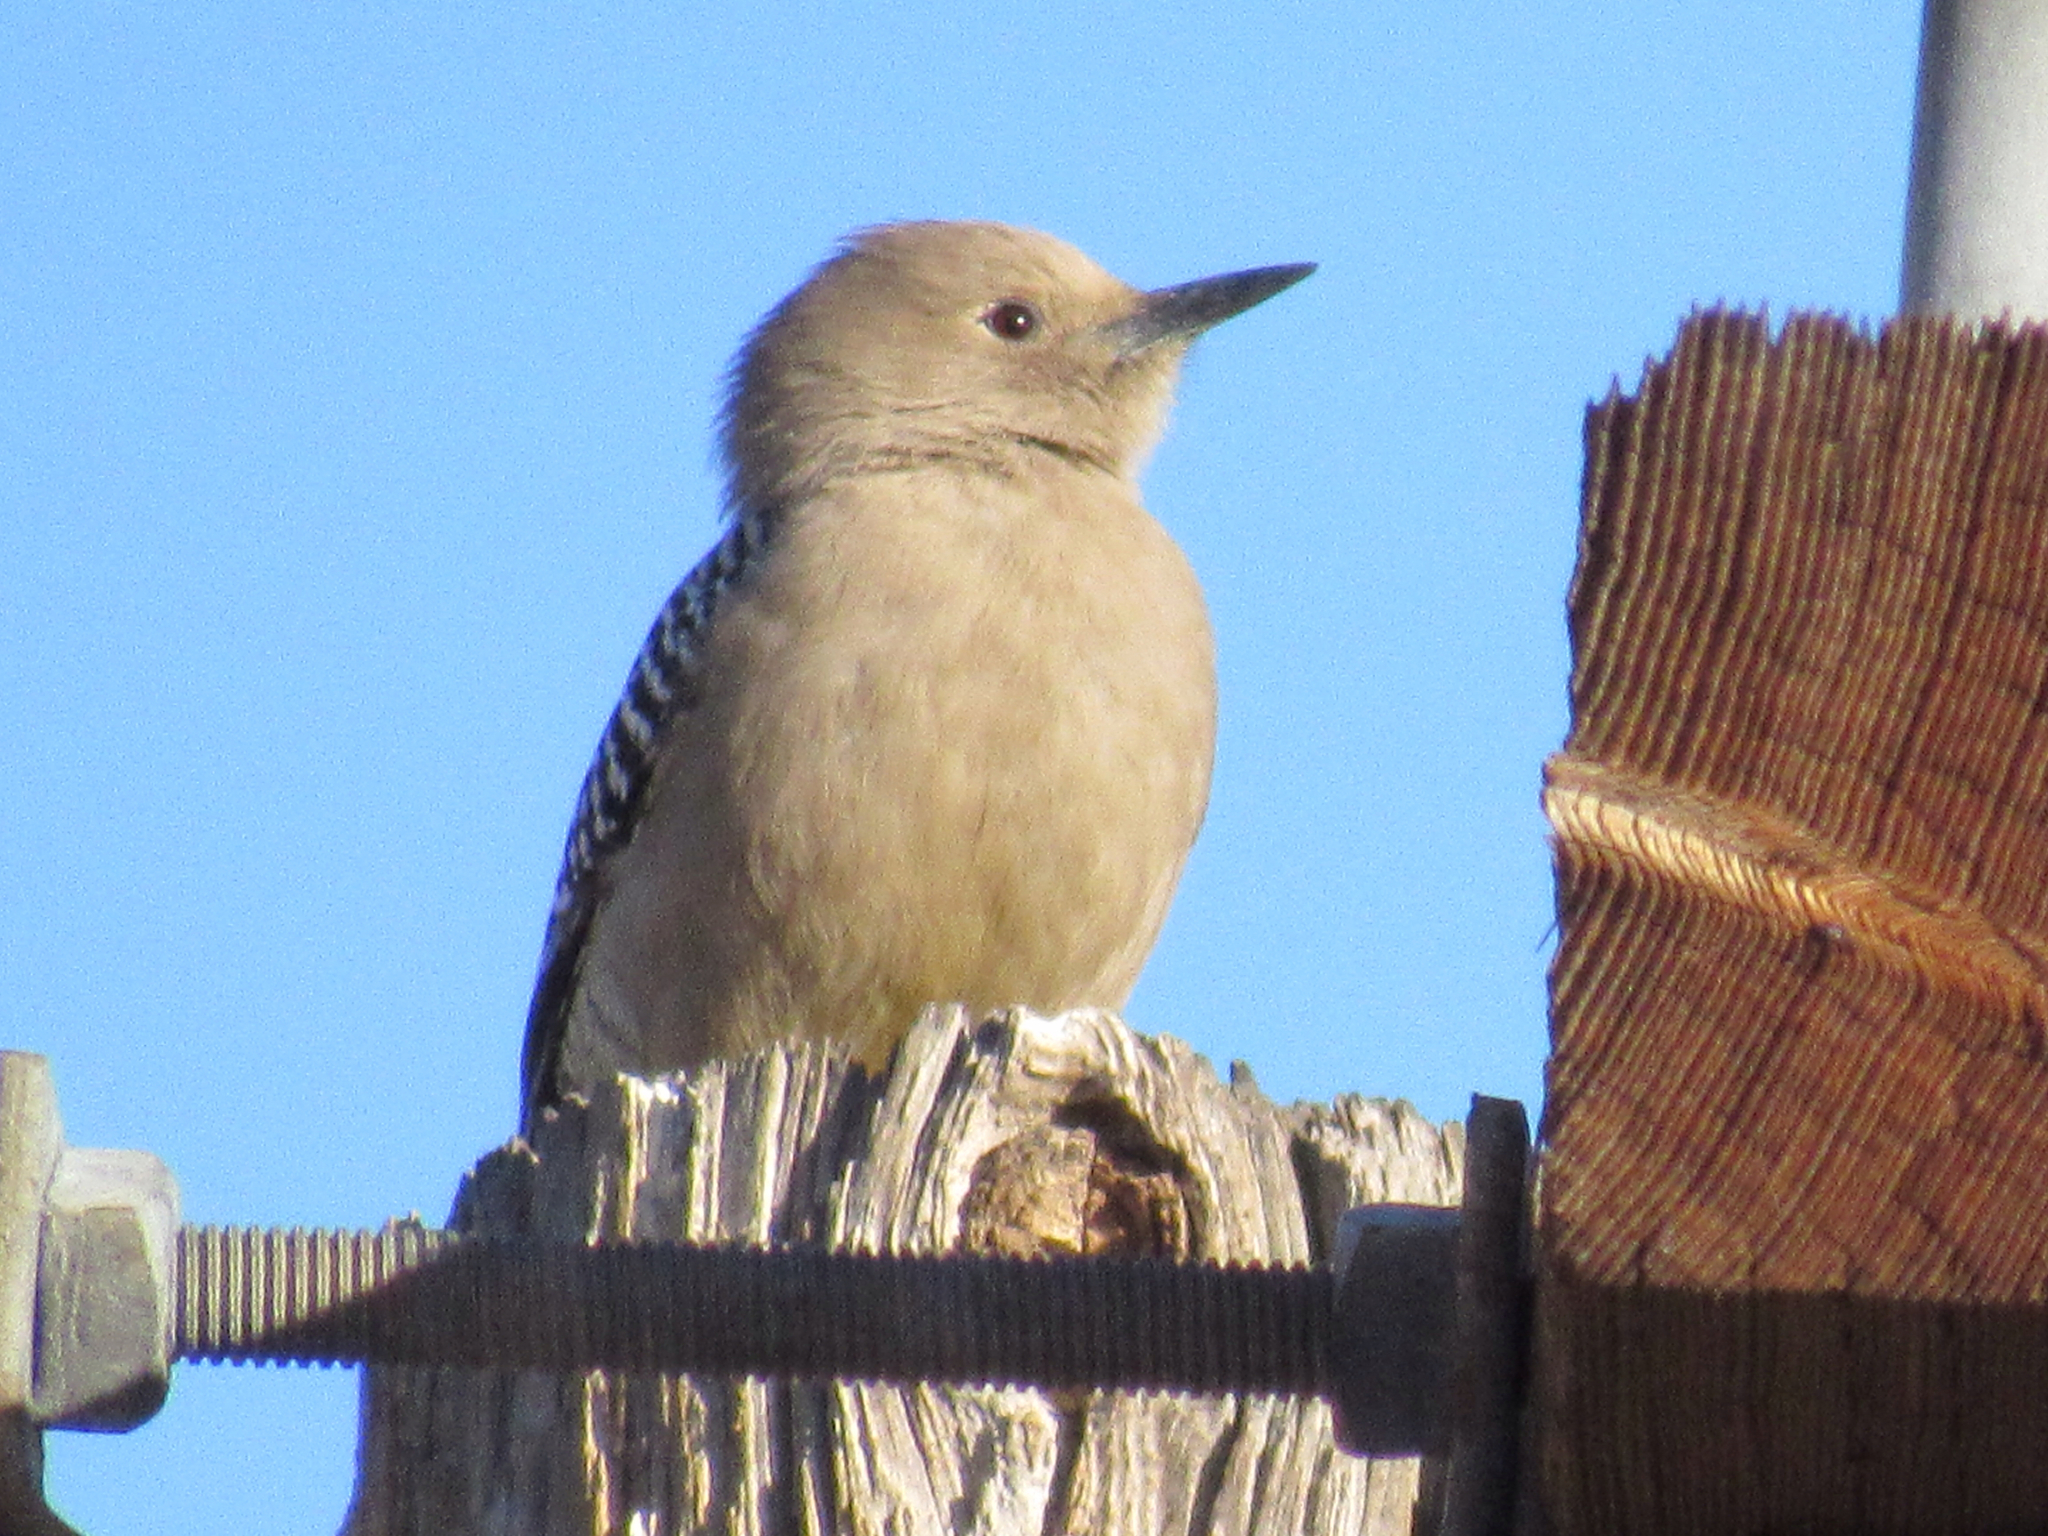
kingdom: Animalia
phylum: Chordata
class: Aves
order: Piciformes
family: Picidae
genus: Melanerpes
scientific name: Melanerpes uropygialis
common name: Gila woodpecker
